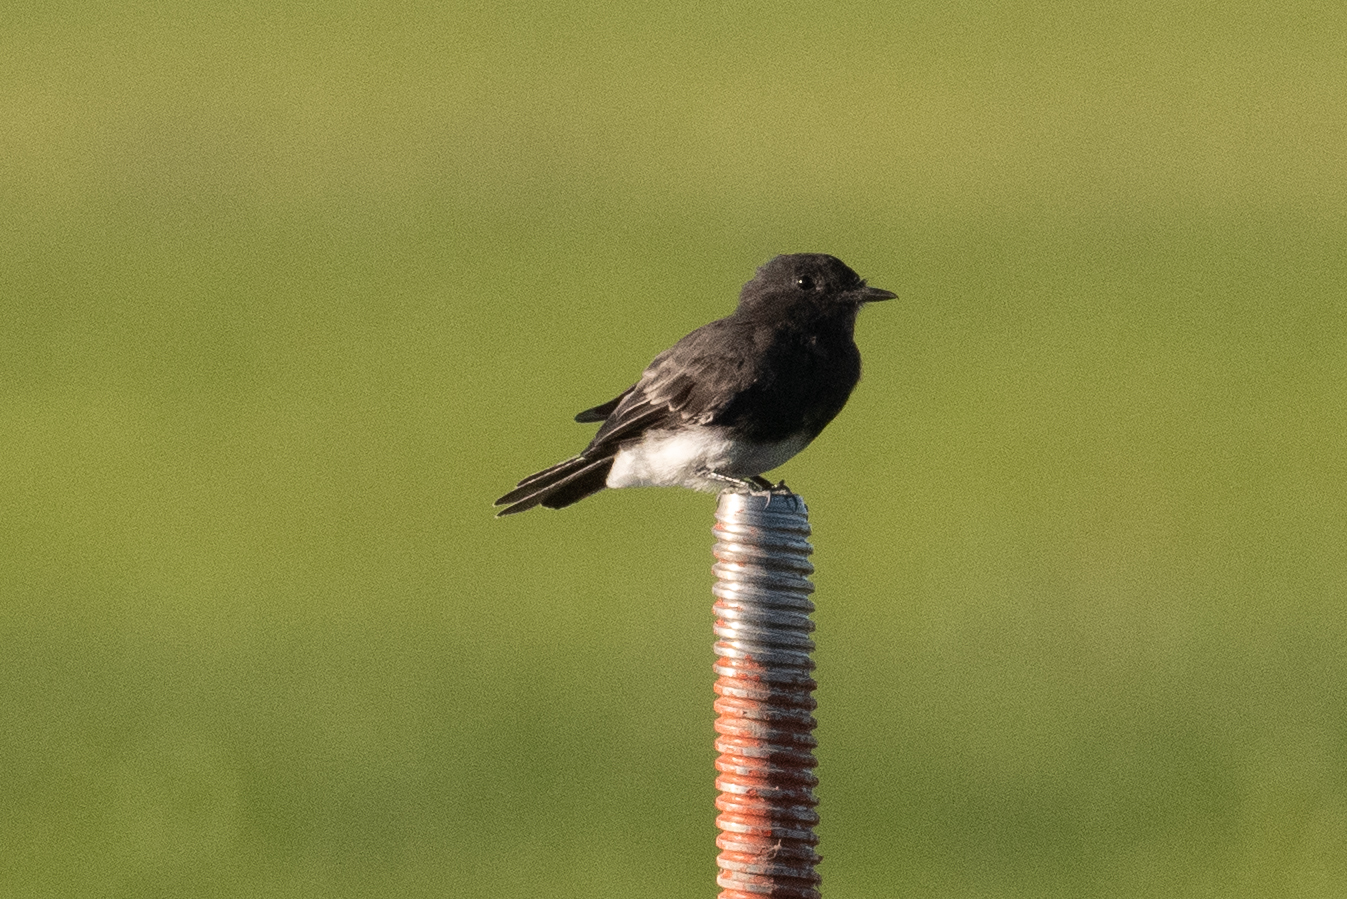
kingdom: Animalia
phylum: Chordata
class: Aves
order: Passeriformes
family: Tyrannidae
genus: Sayornis
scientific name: Sayornis nigricans
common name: Black phoebe
